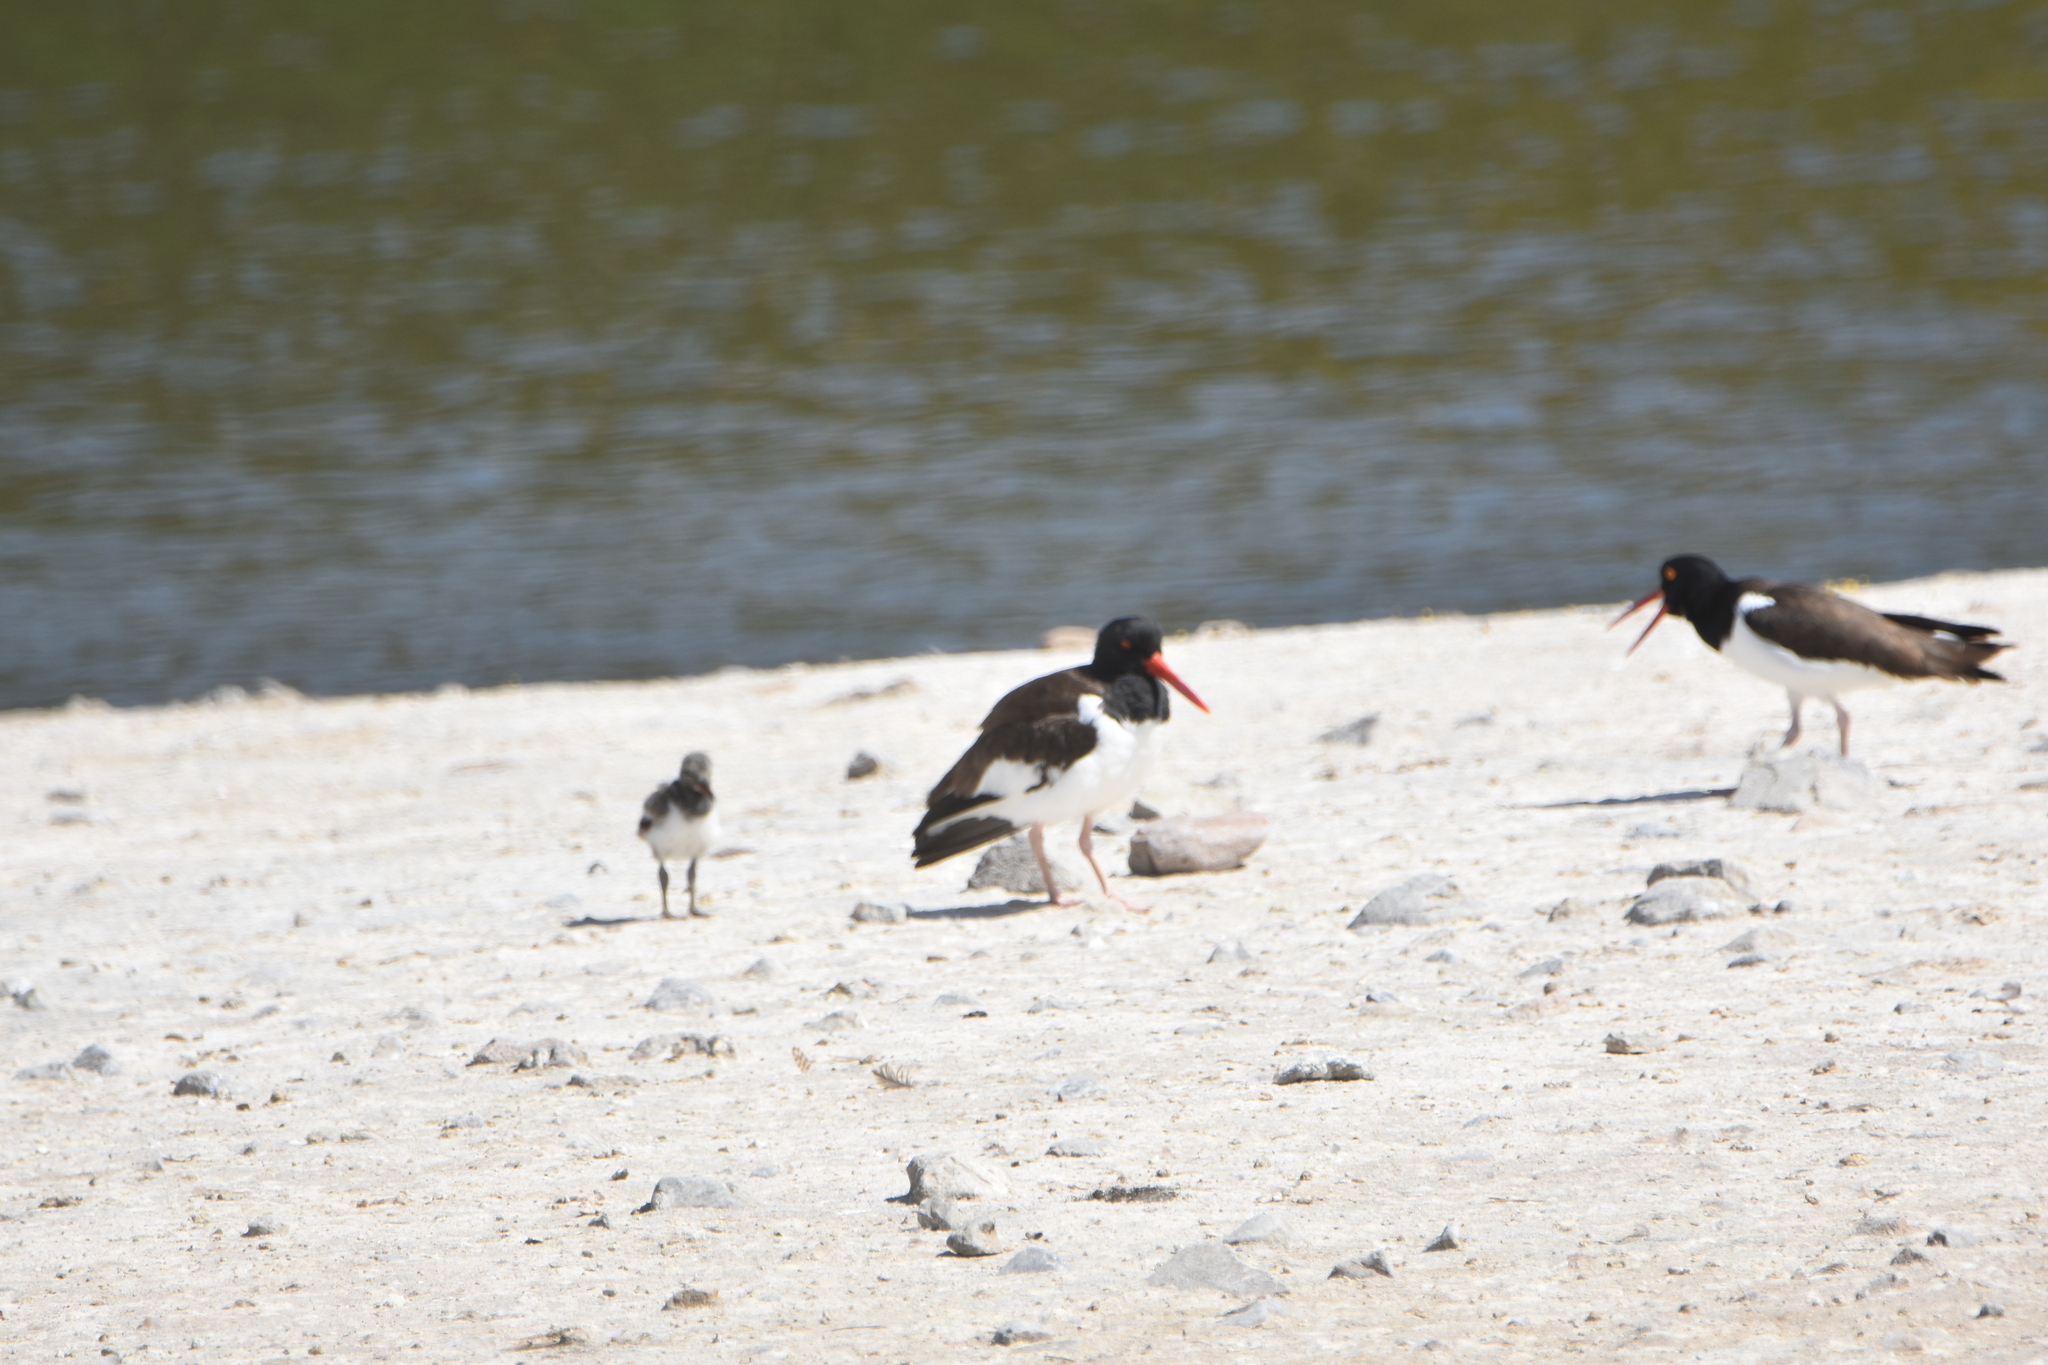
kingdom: Animalia
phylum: Chordata
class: Aves
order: Charadriiformes
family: Haematopodidae
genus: Haematopus
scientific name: Haematopus palliatus
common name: American oystercatcher
